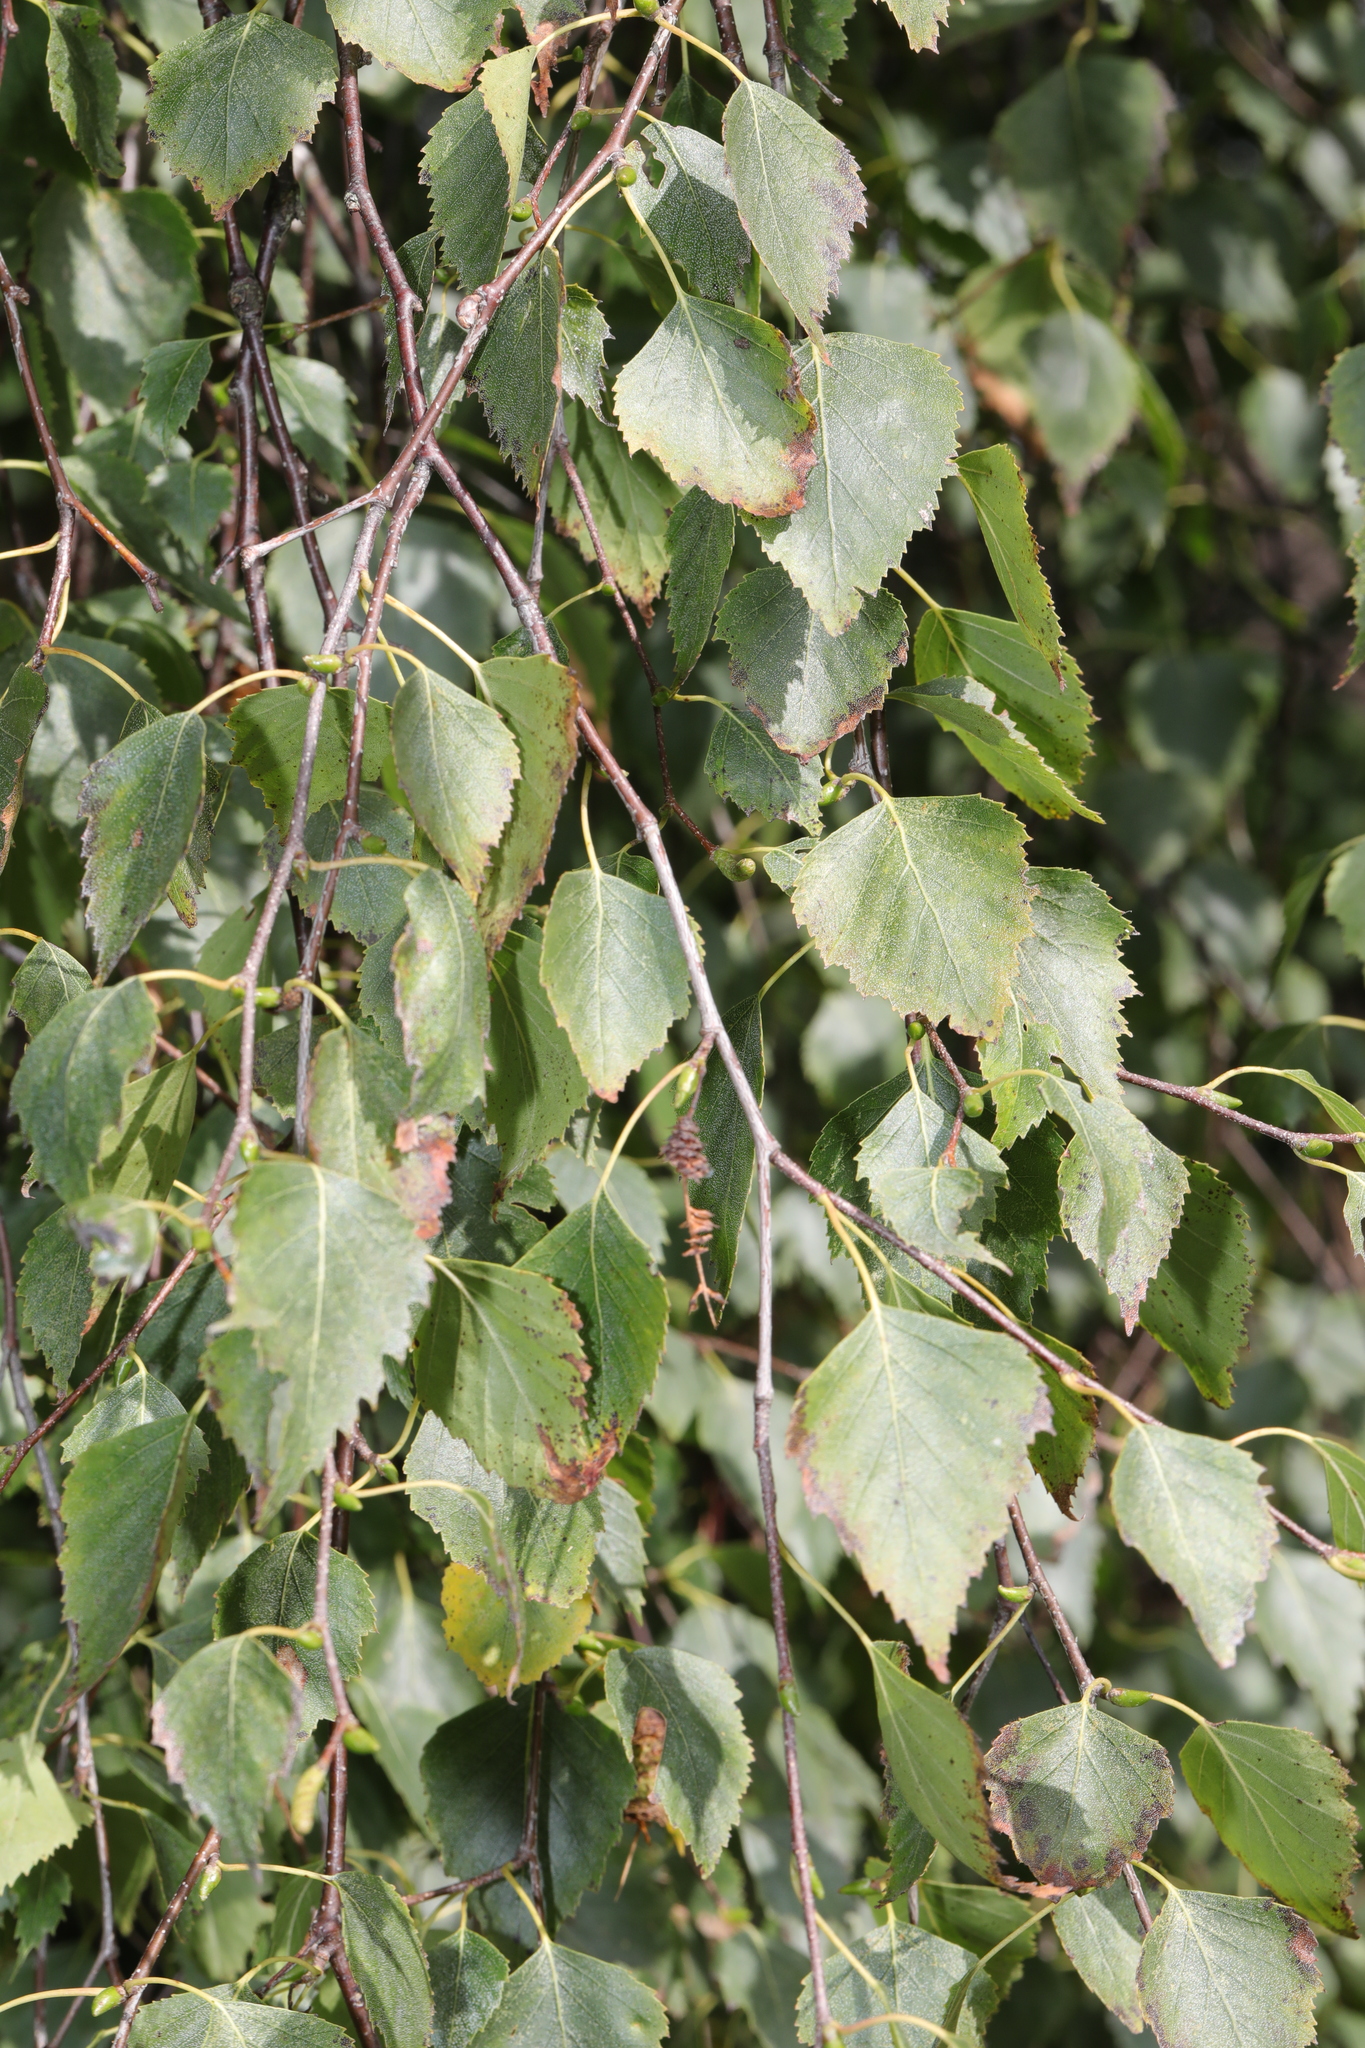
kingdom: Plantae
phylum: Tracheophyta
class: Magnoliopsida
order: Fagales
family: Betulaceae
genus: Betula
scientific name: Betula pendula
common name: Silver birch
